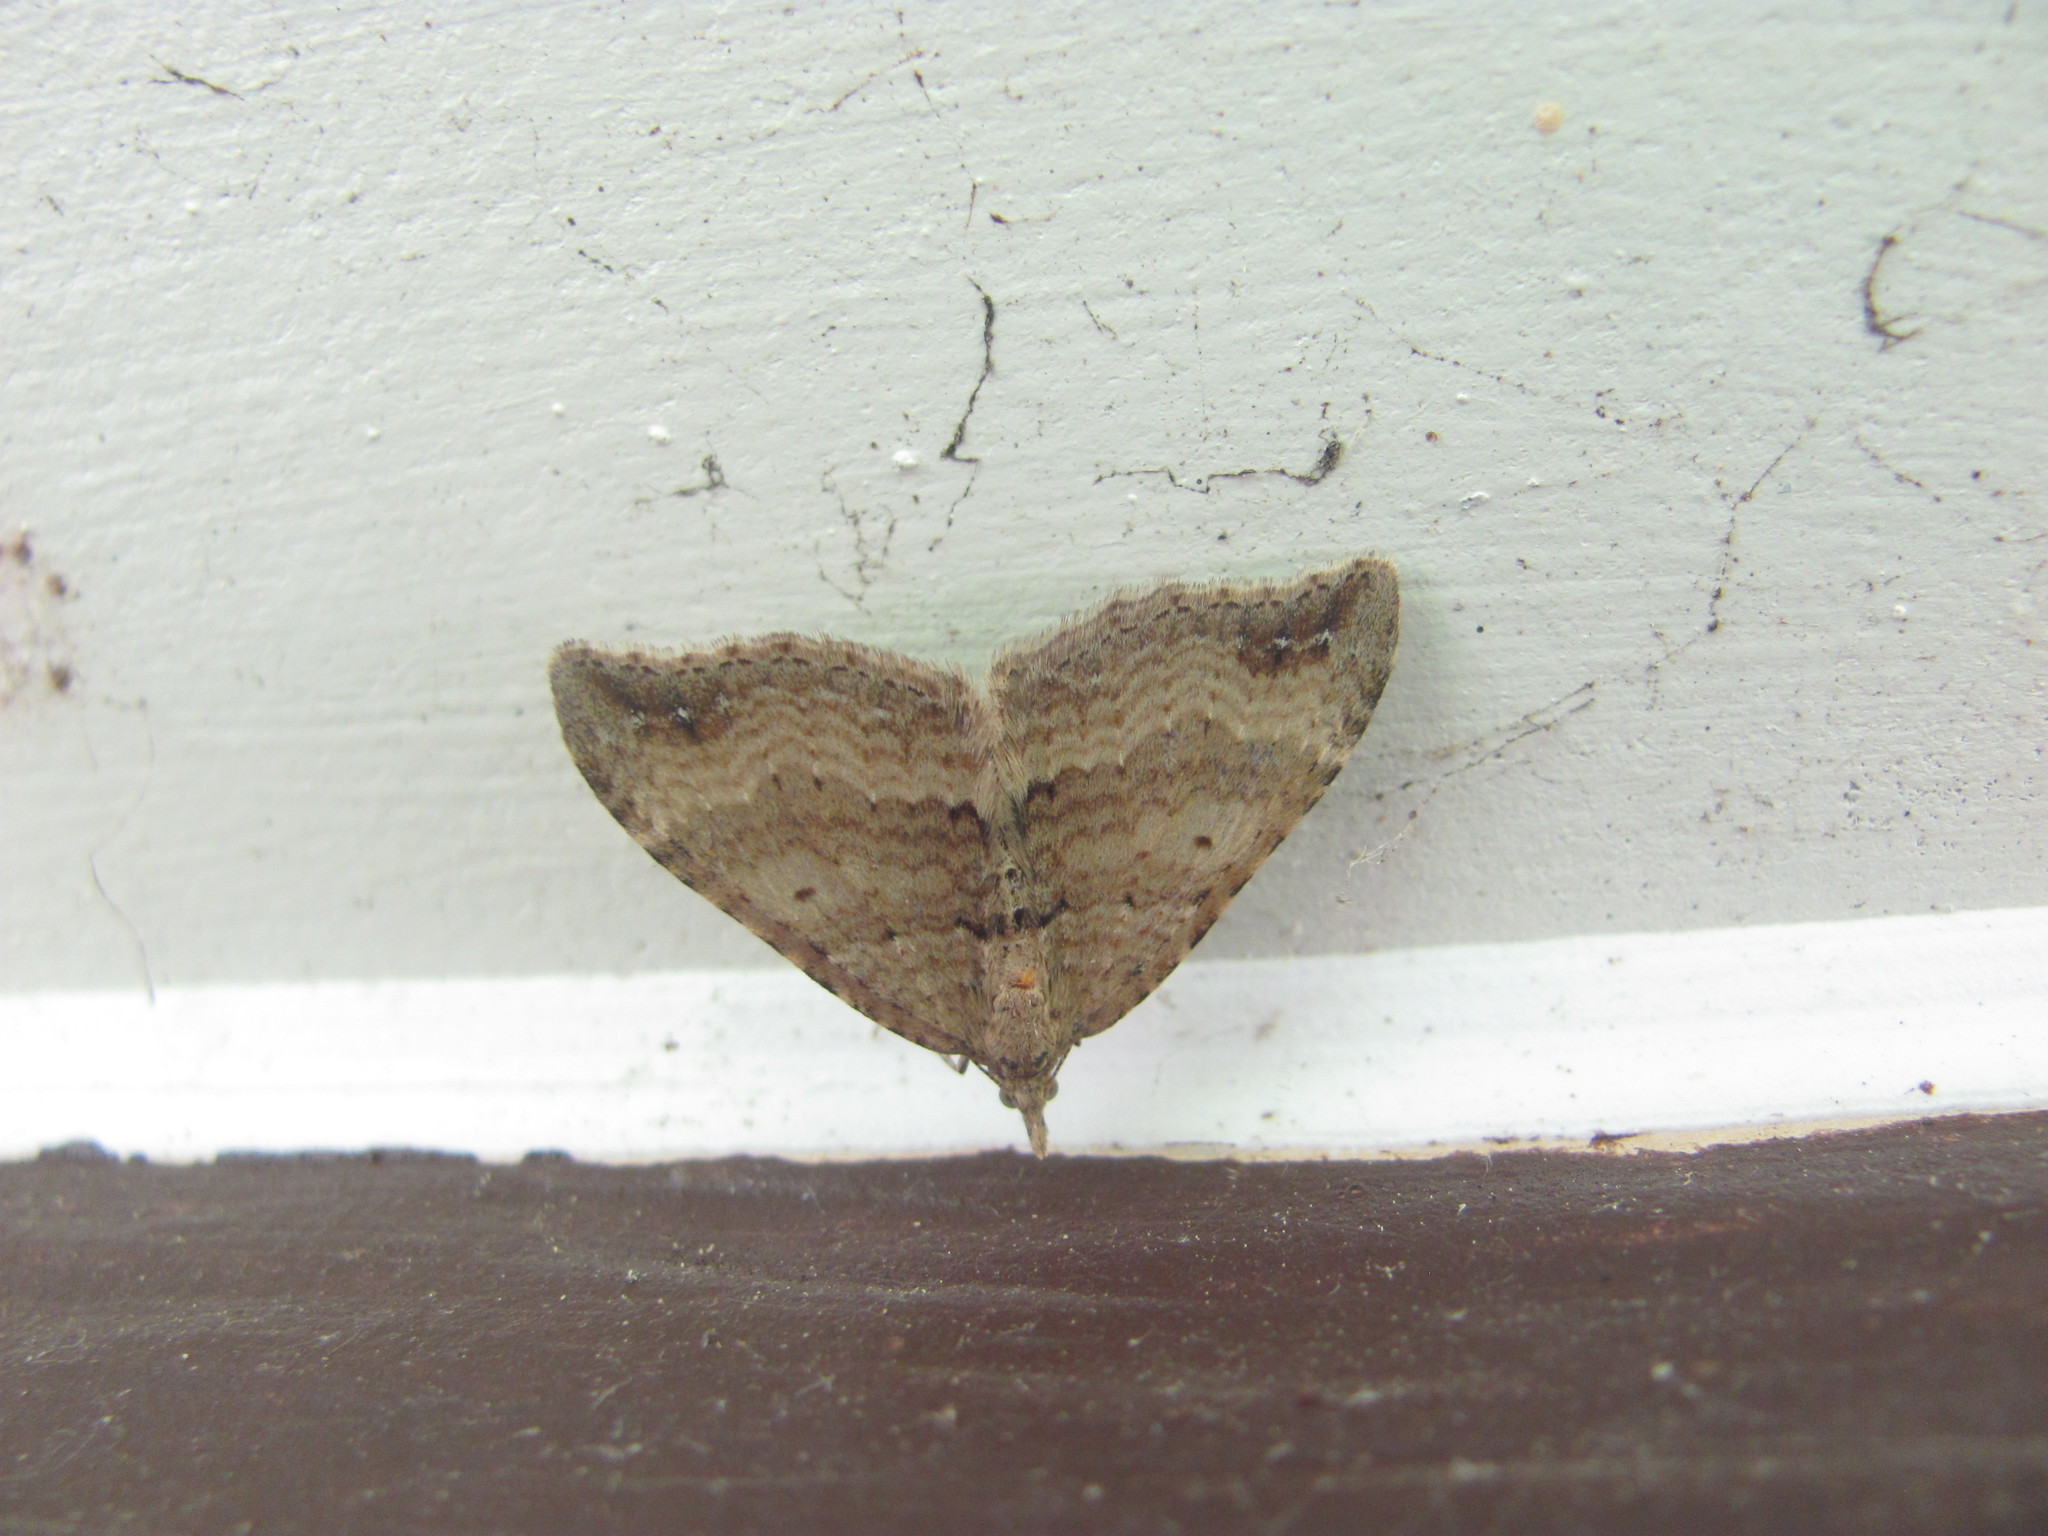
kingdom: Animalia
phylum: Arthropoda
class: Insecta
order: Lepidoptera
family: Geometridae
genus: Homodotis
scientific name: Homodotis falcata
